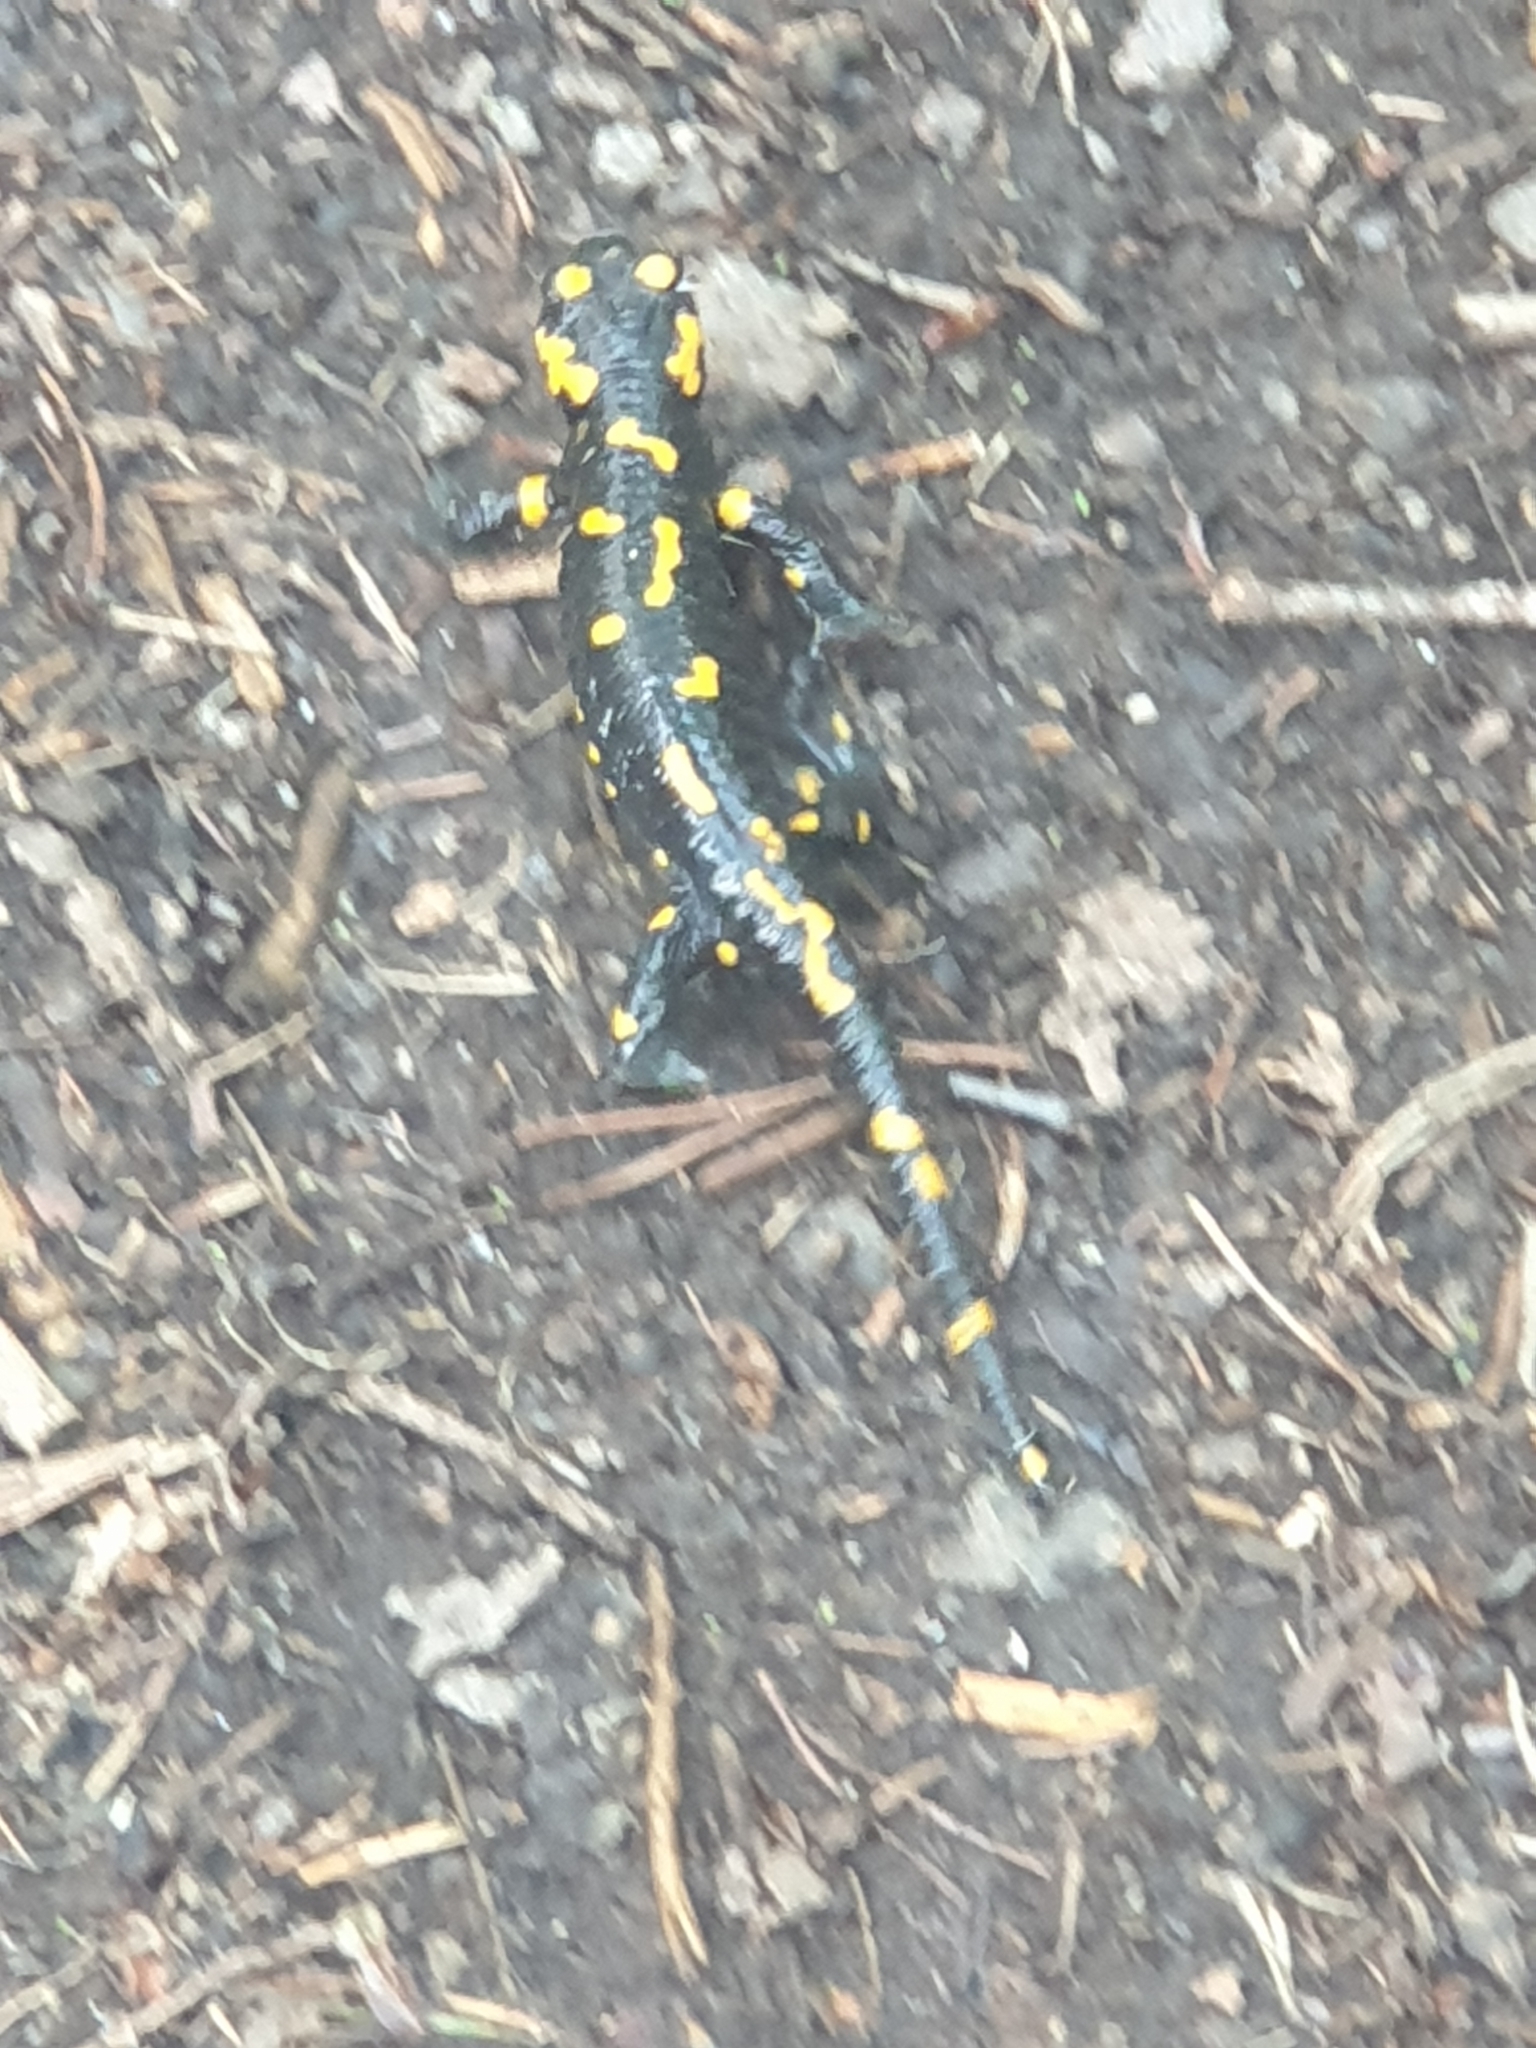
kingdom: Animalia
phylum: Chordata
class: Amphibia
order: Caudata
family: Salamandridae
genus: Salamandra
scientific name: Salamandra salamandra
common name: Fire salamander
